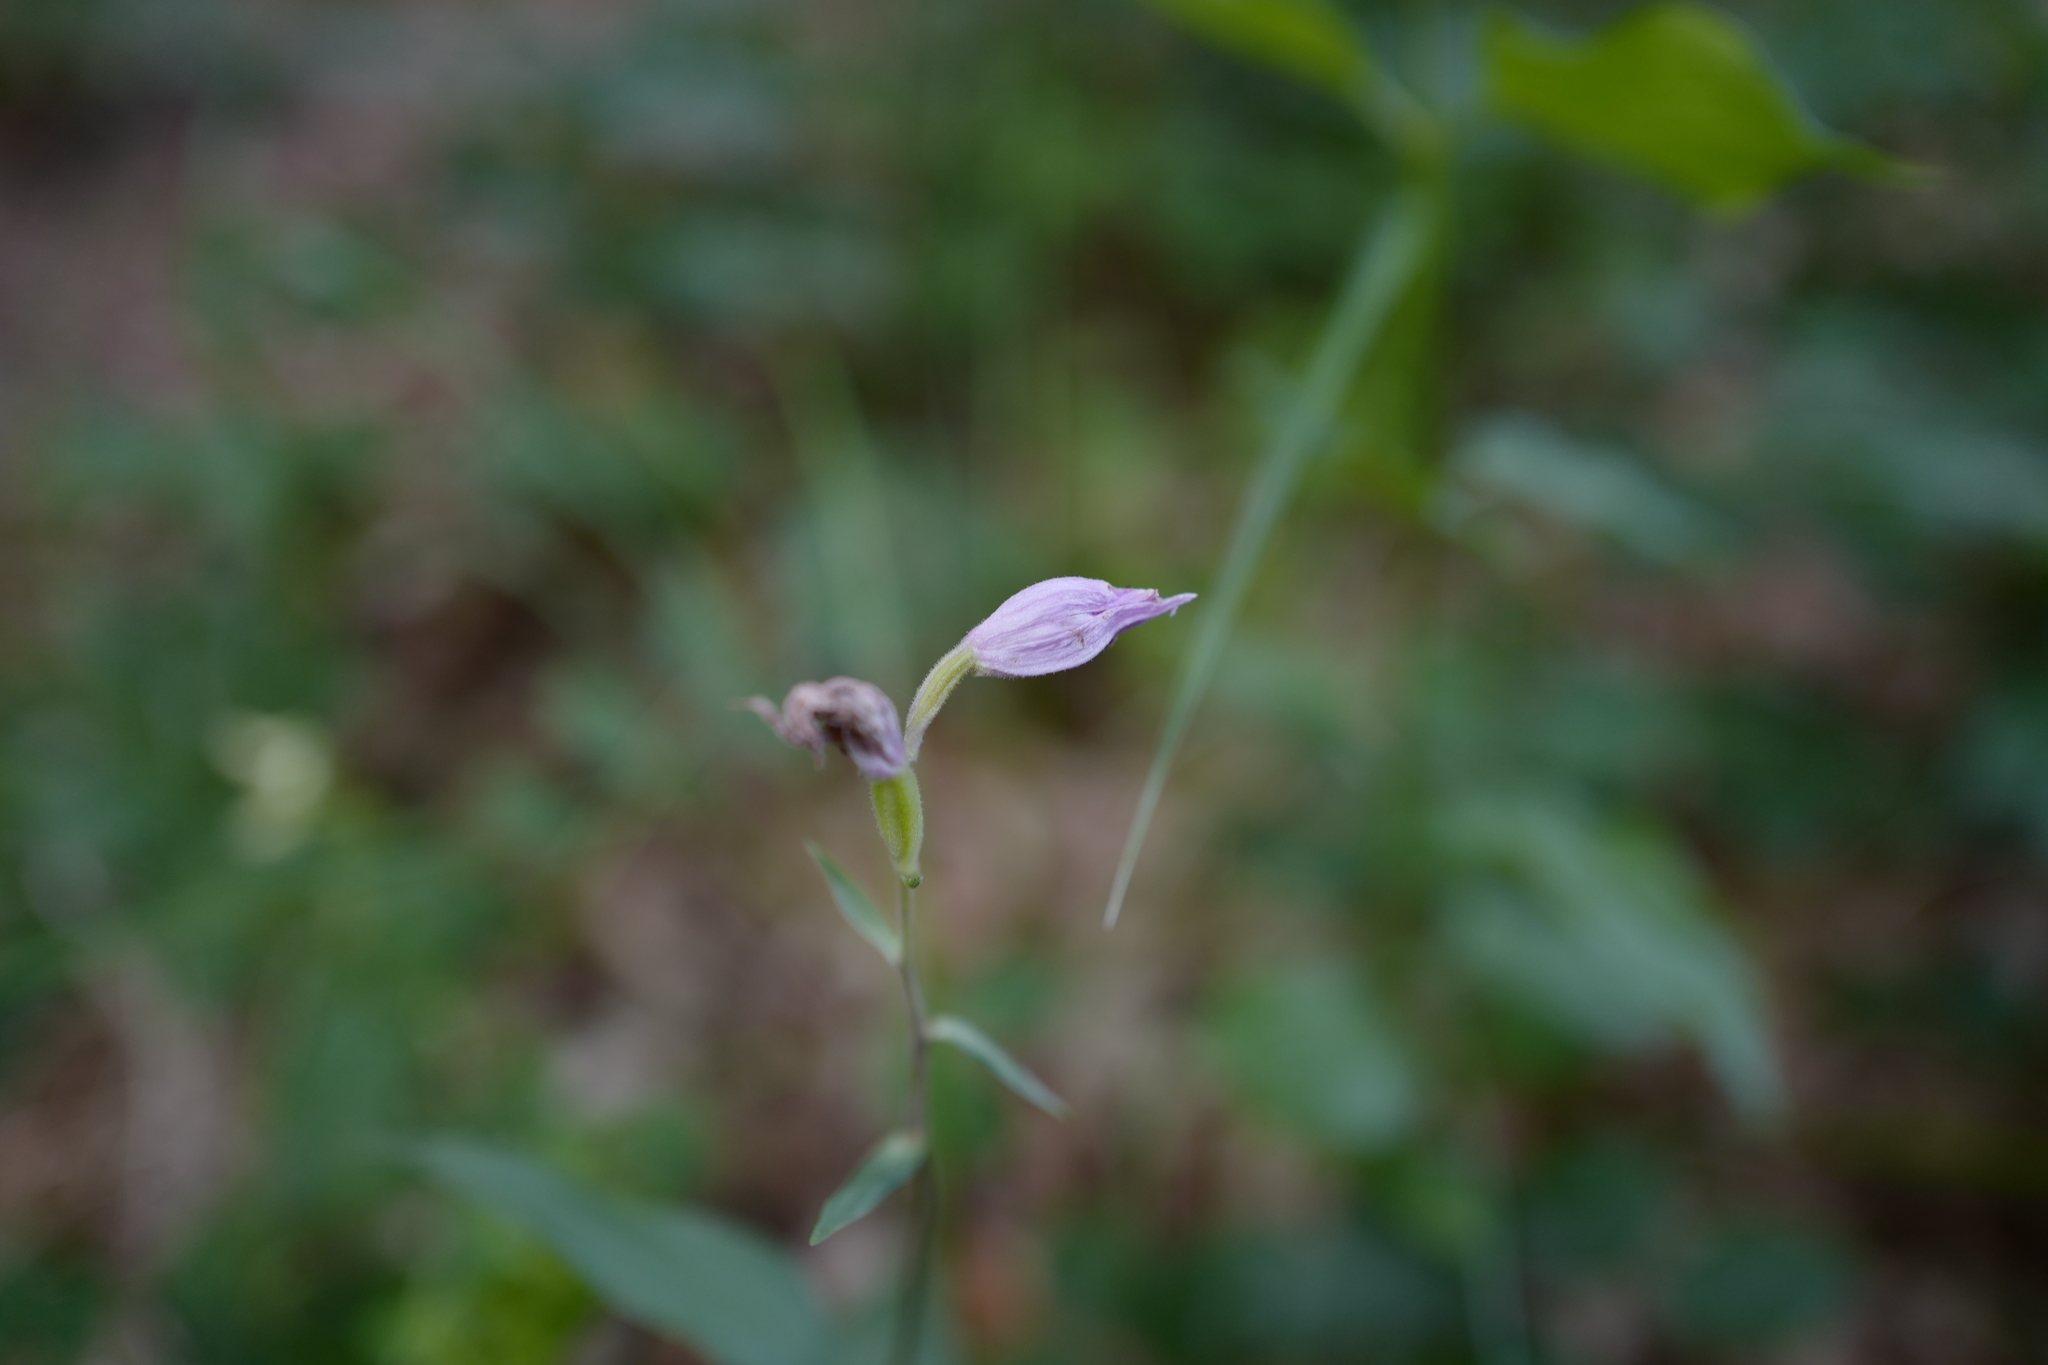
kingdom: Plantae
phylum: Tracheophyta
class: Liliopsida
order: Asparagales
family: Orchidaceae
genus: Cephalanthera
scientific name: Cephalanthera rubra
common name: Red helleborine
